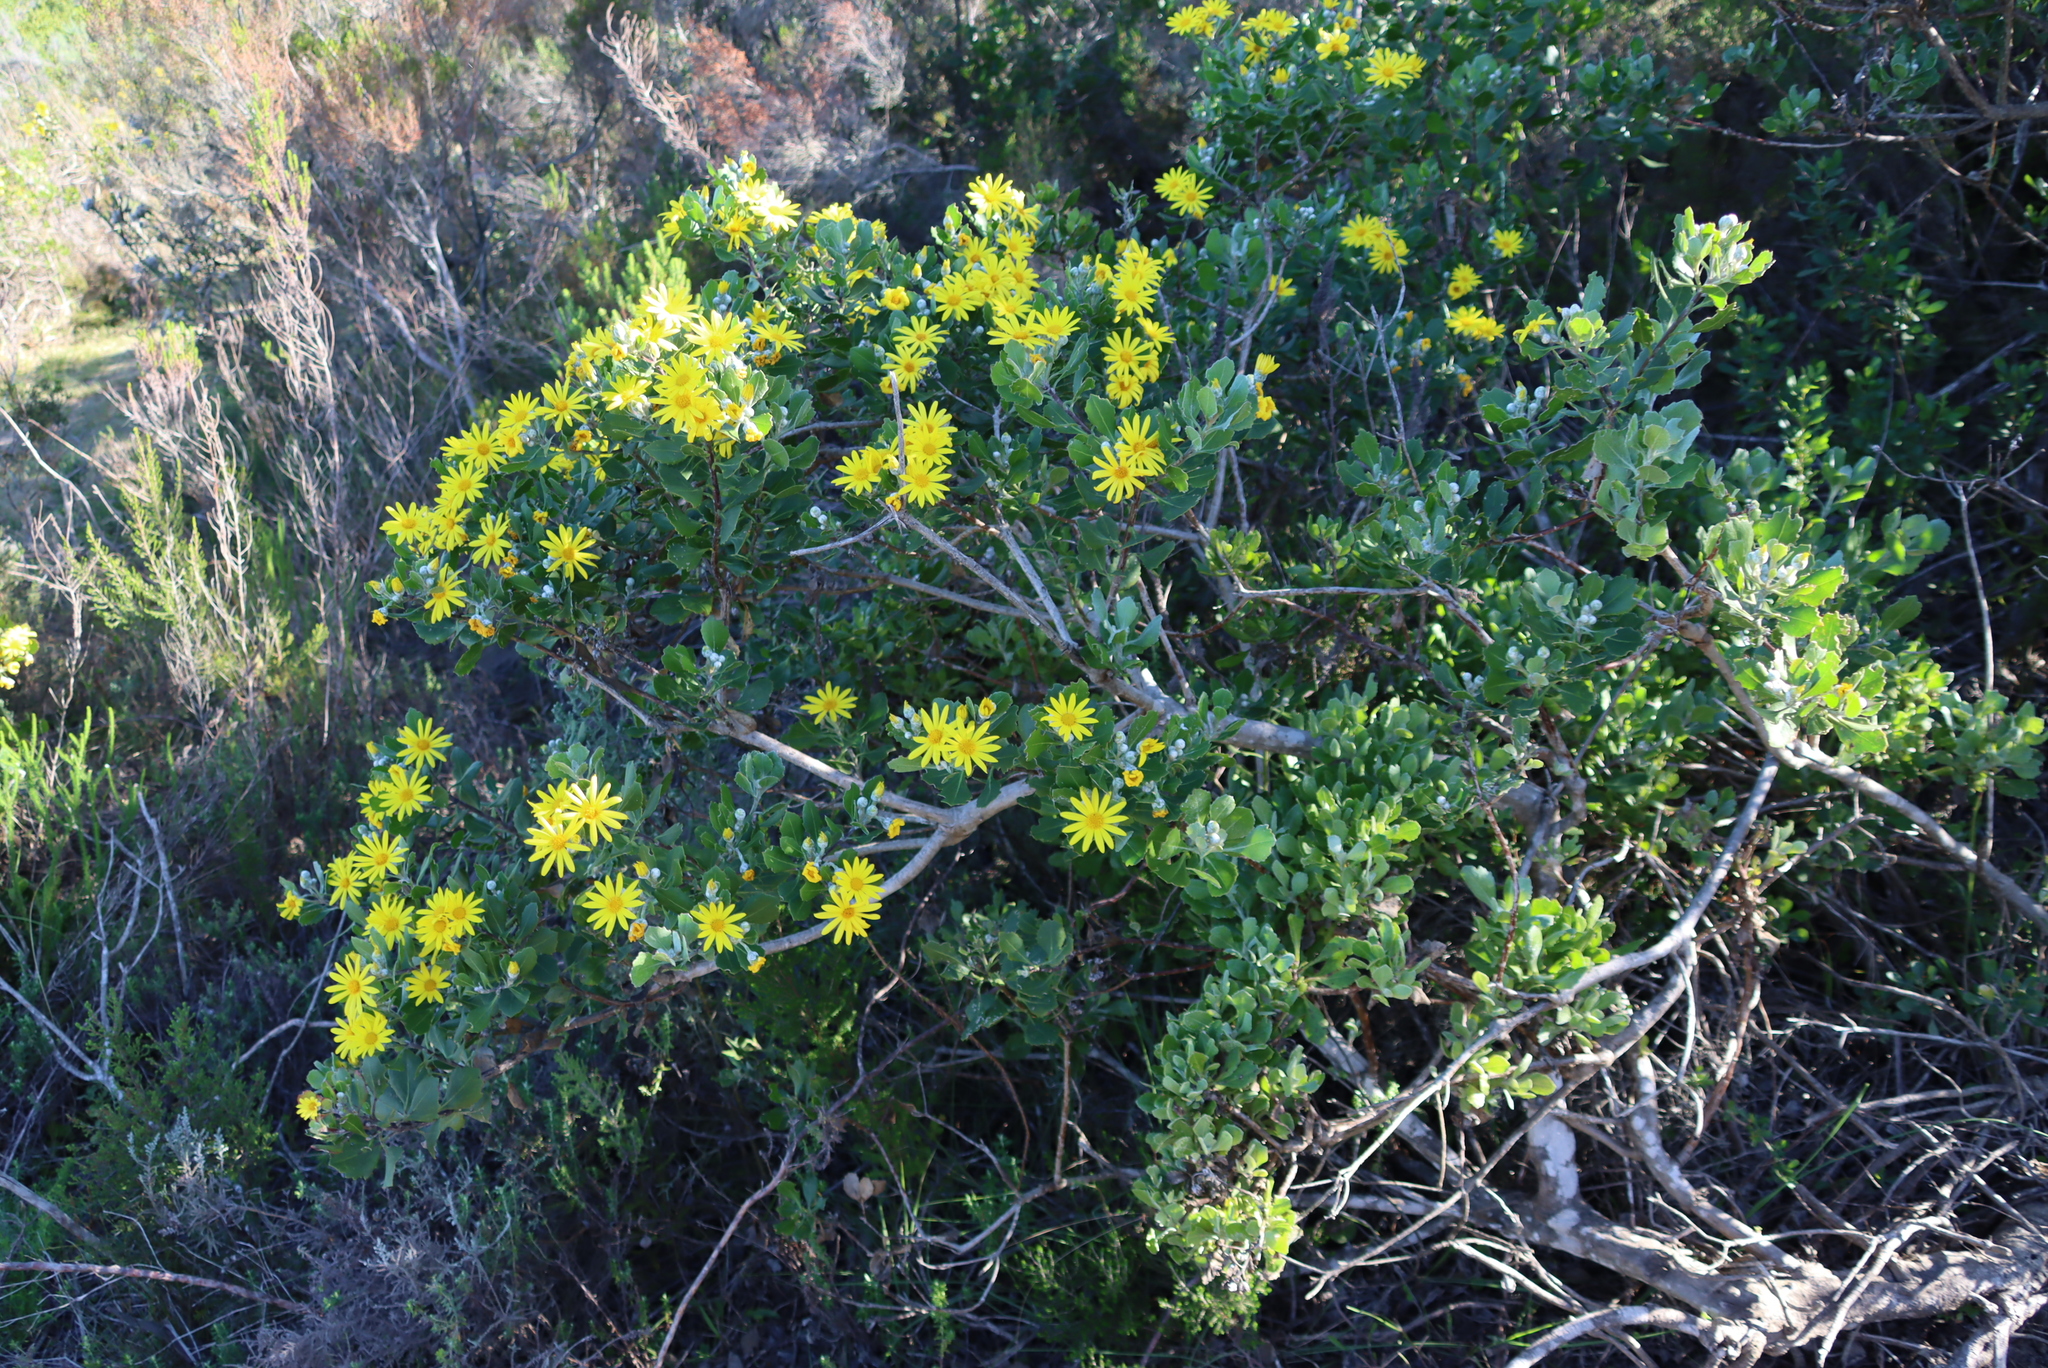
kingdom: Plantae
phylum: Tracheophyta
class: Magnoliopsida
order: Asterales
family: Asteraceae
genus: Osteospermum
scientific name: Osteospermum moniliferum
